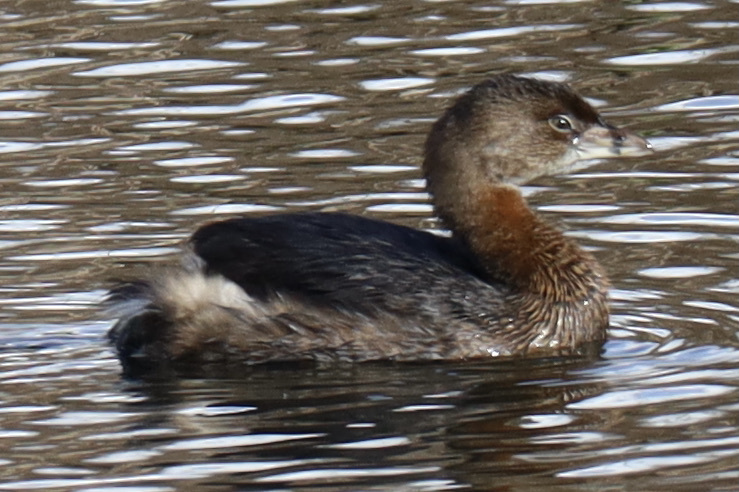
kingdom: Animalia
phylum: Chordata
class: Aves
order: Podicipediformes
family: Podicipedidae
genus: Podilymbus
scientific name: Podilymbus podiceps
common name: Pied-billed grebe
